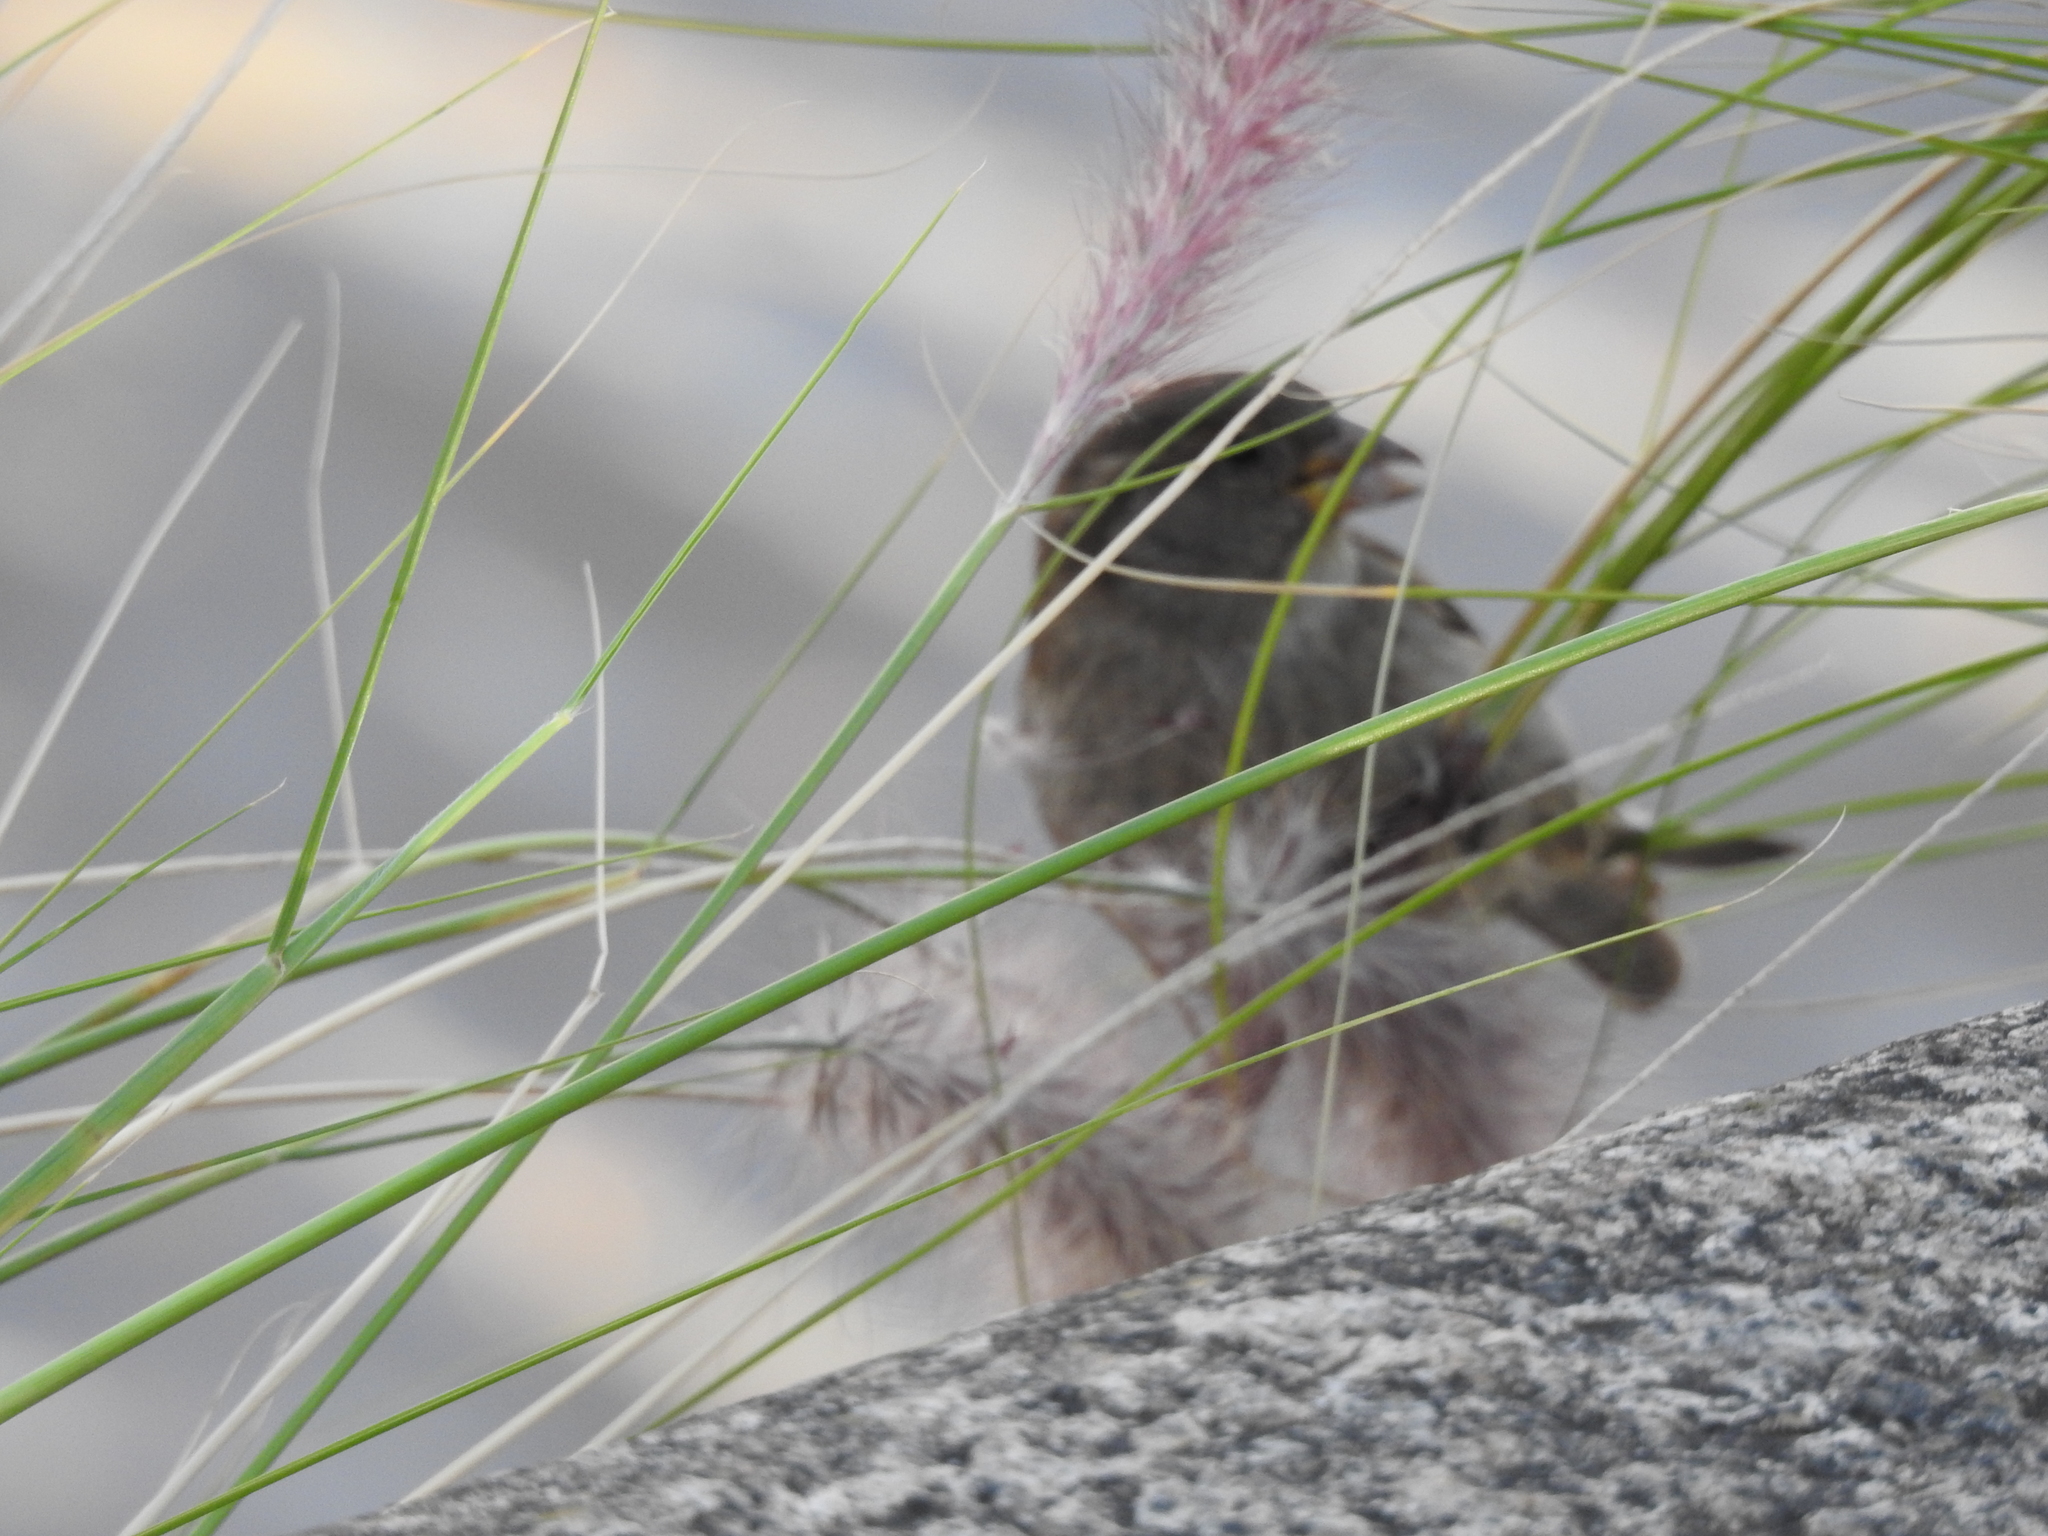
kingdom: Animalia
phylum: Chordata
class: Aves
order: Passeriformes
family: Passeridae
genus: Passer
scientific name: Passer domesticus
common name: House sparrow
